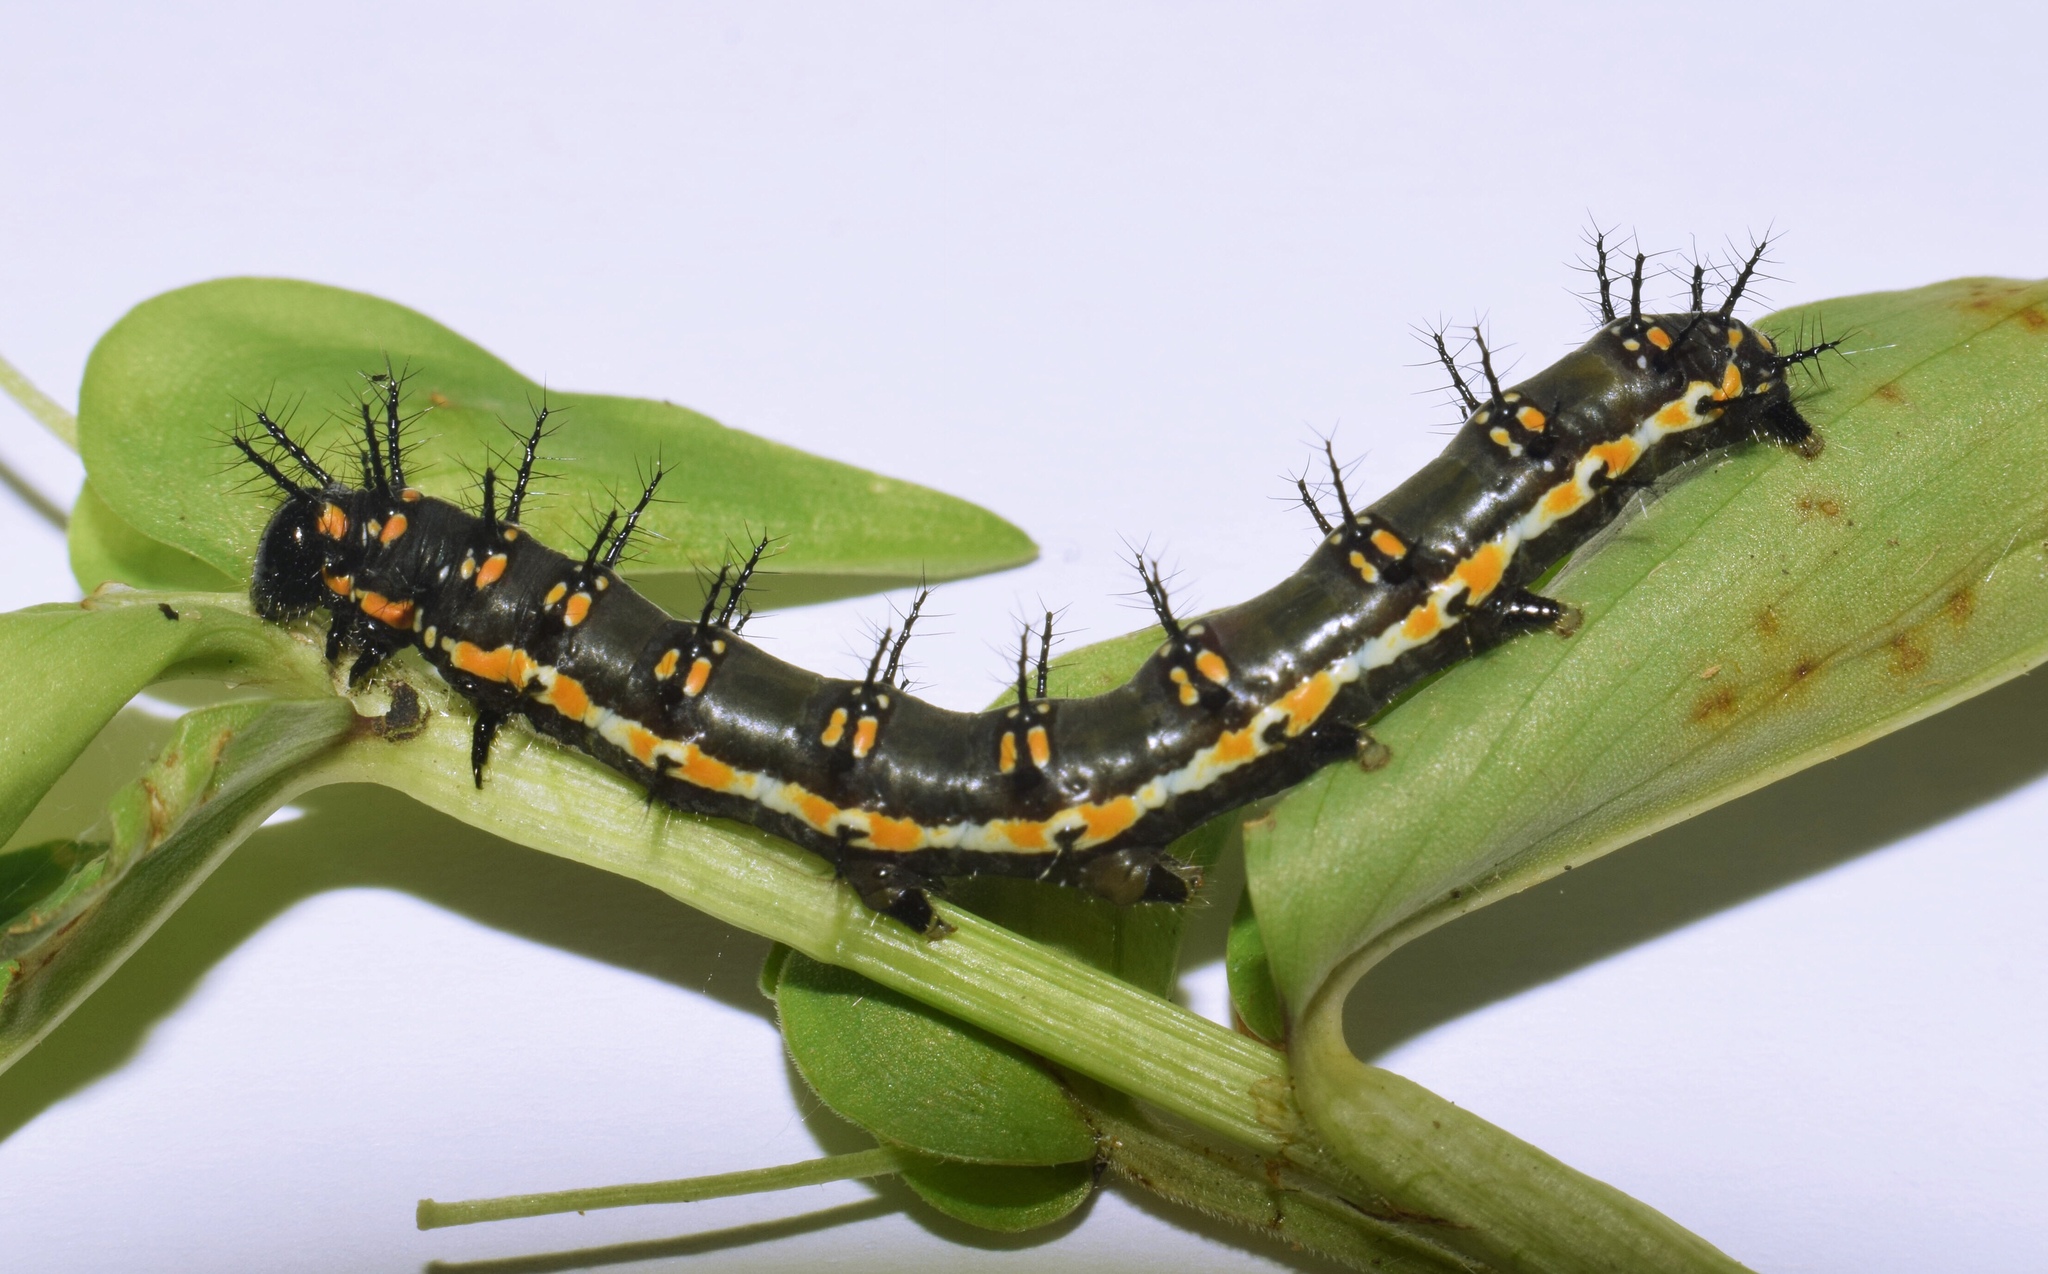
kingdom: Animalia
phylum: Arthropoda
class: Insecta
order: Lepidoptera
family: Nymphalidae
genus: Acraea
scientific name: Acraea Telchinia encedon
